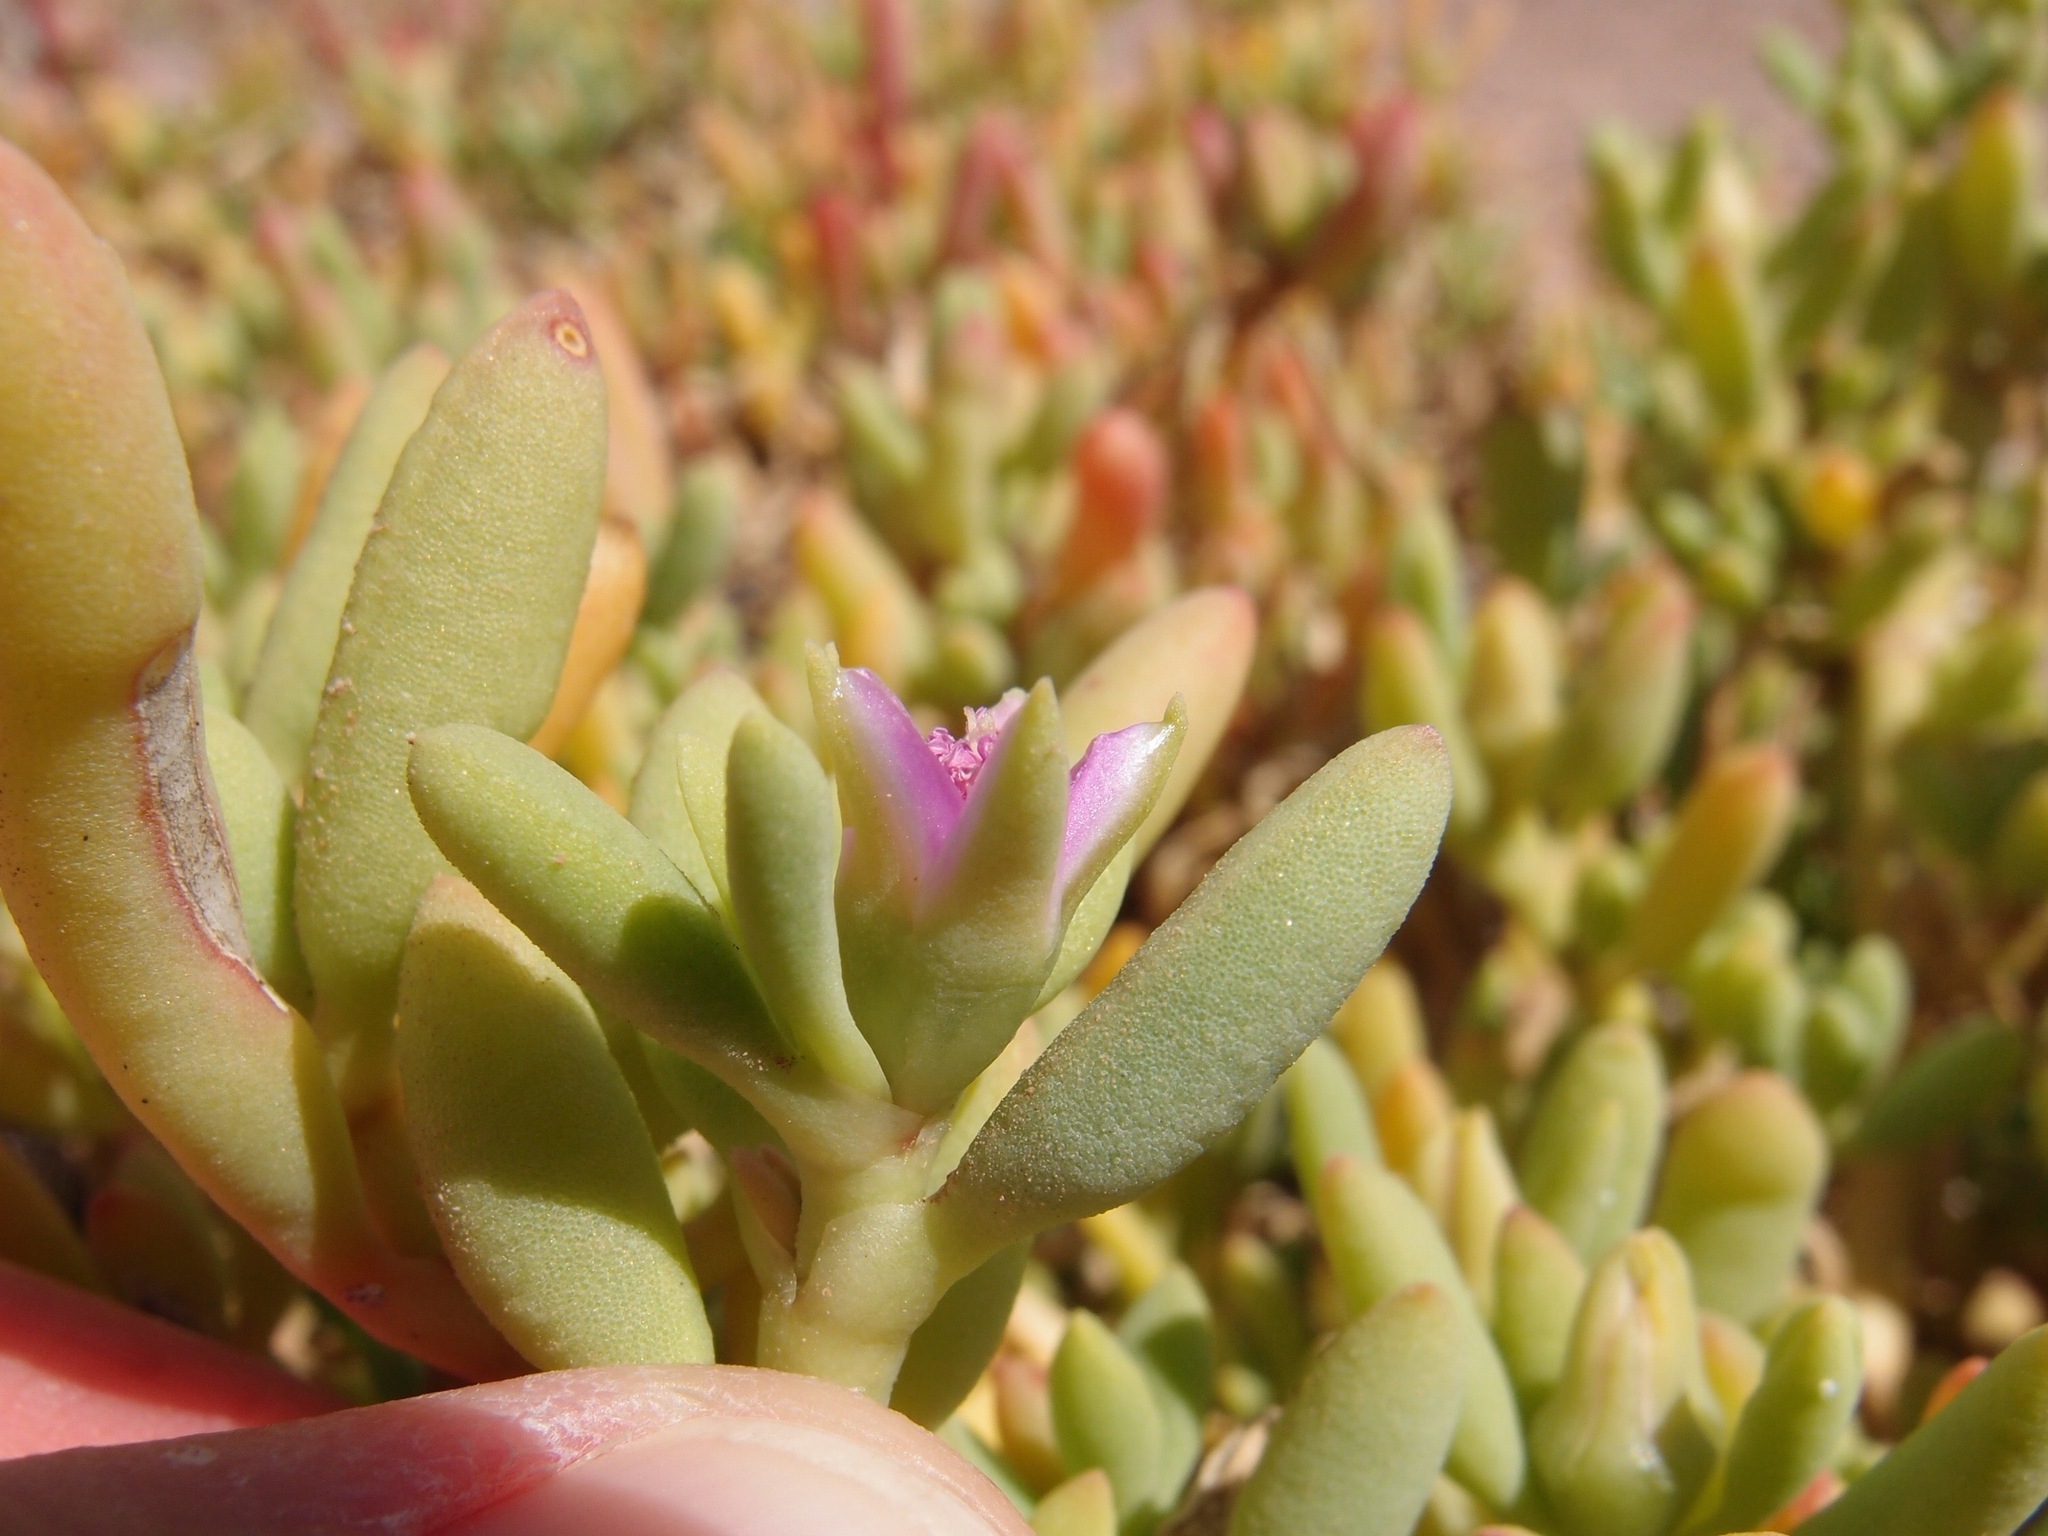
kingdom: Plantae
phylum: Tracheophyta
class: Magnoliopsida
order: Caryophyllales
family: Aizoaceae
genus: Sesuvium
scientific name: Sesuvium portulacastrum
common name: Sea-purslane
